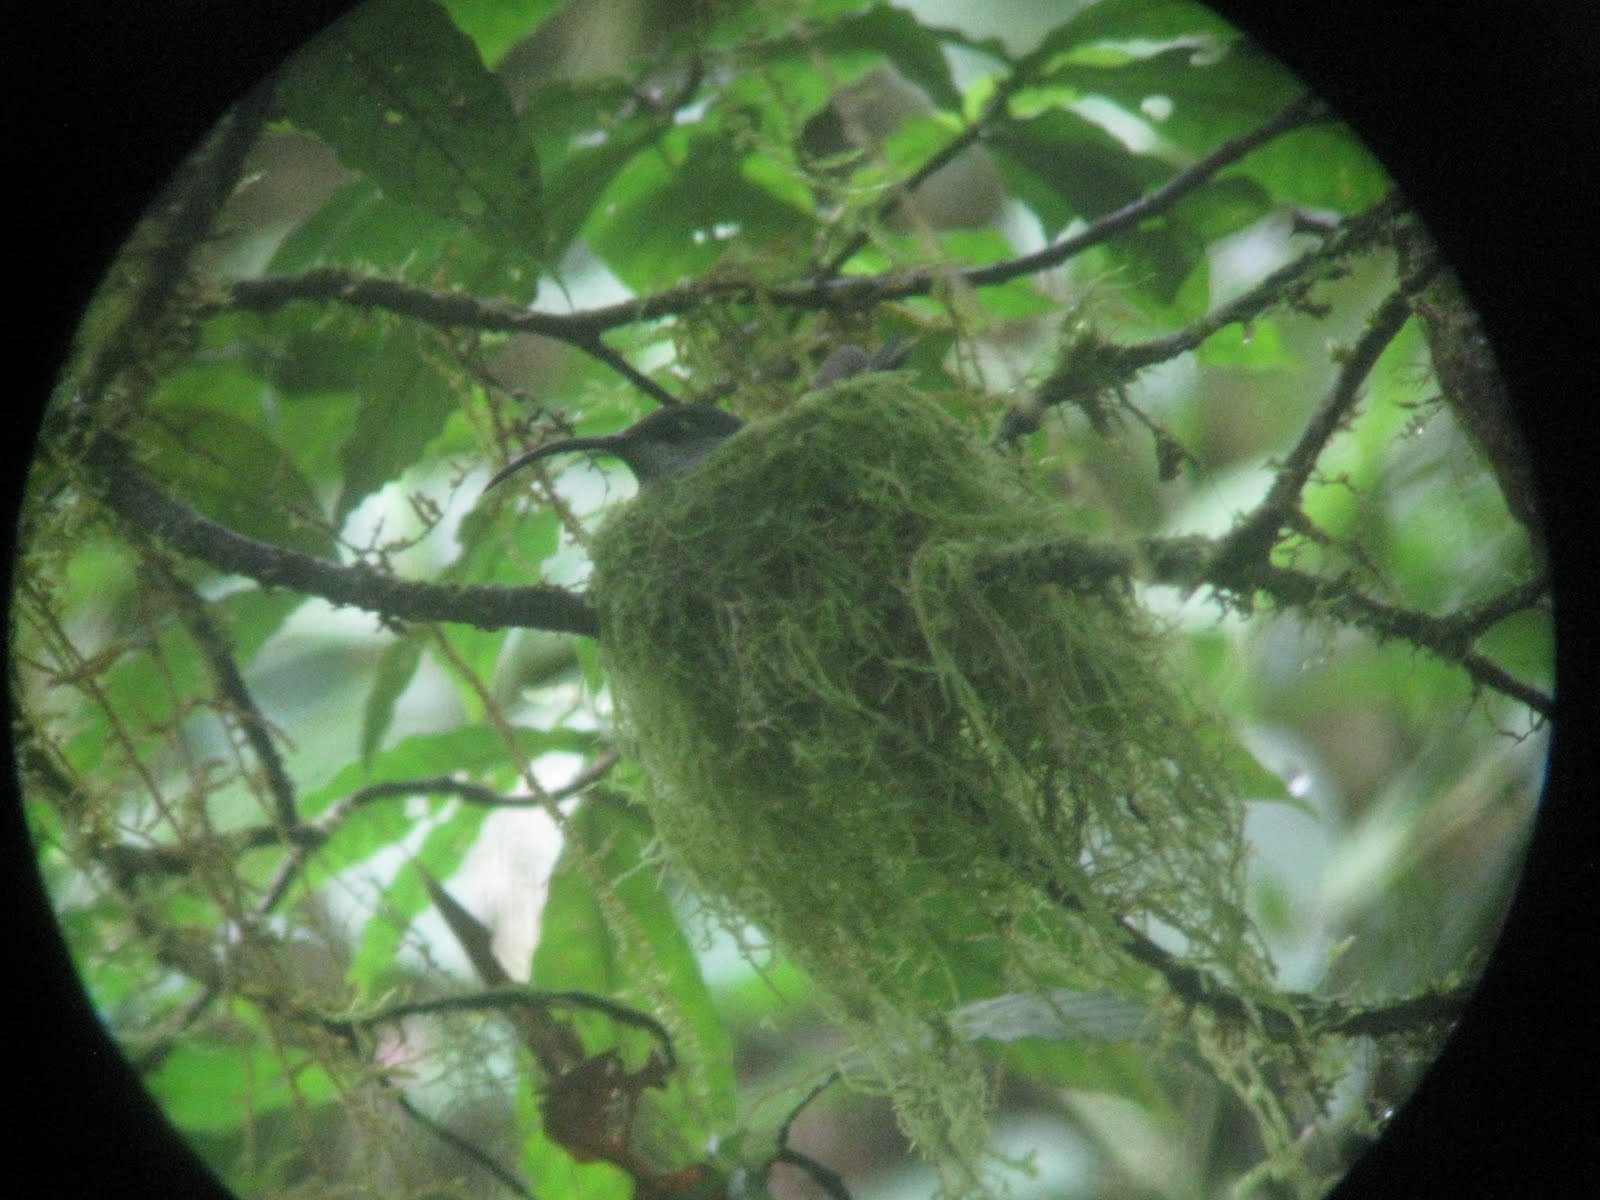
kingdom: Animalia
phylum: Chordata
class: Aves
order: Apodiformes
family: Trochilidae
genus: Campylopterus
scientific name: Campylopterus hemileucurus
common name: Violet sabrewing
